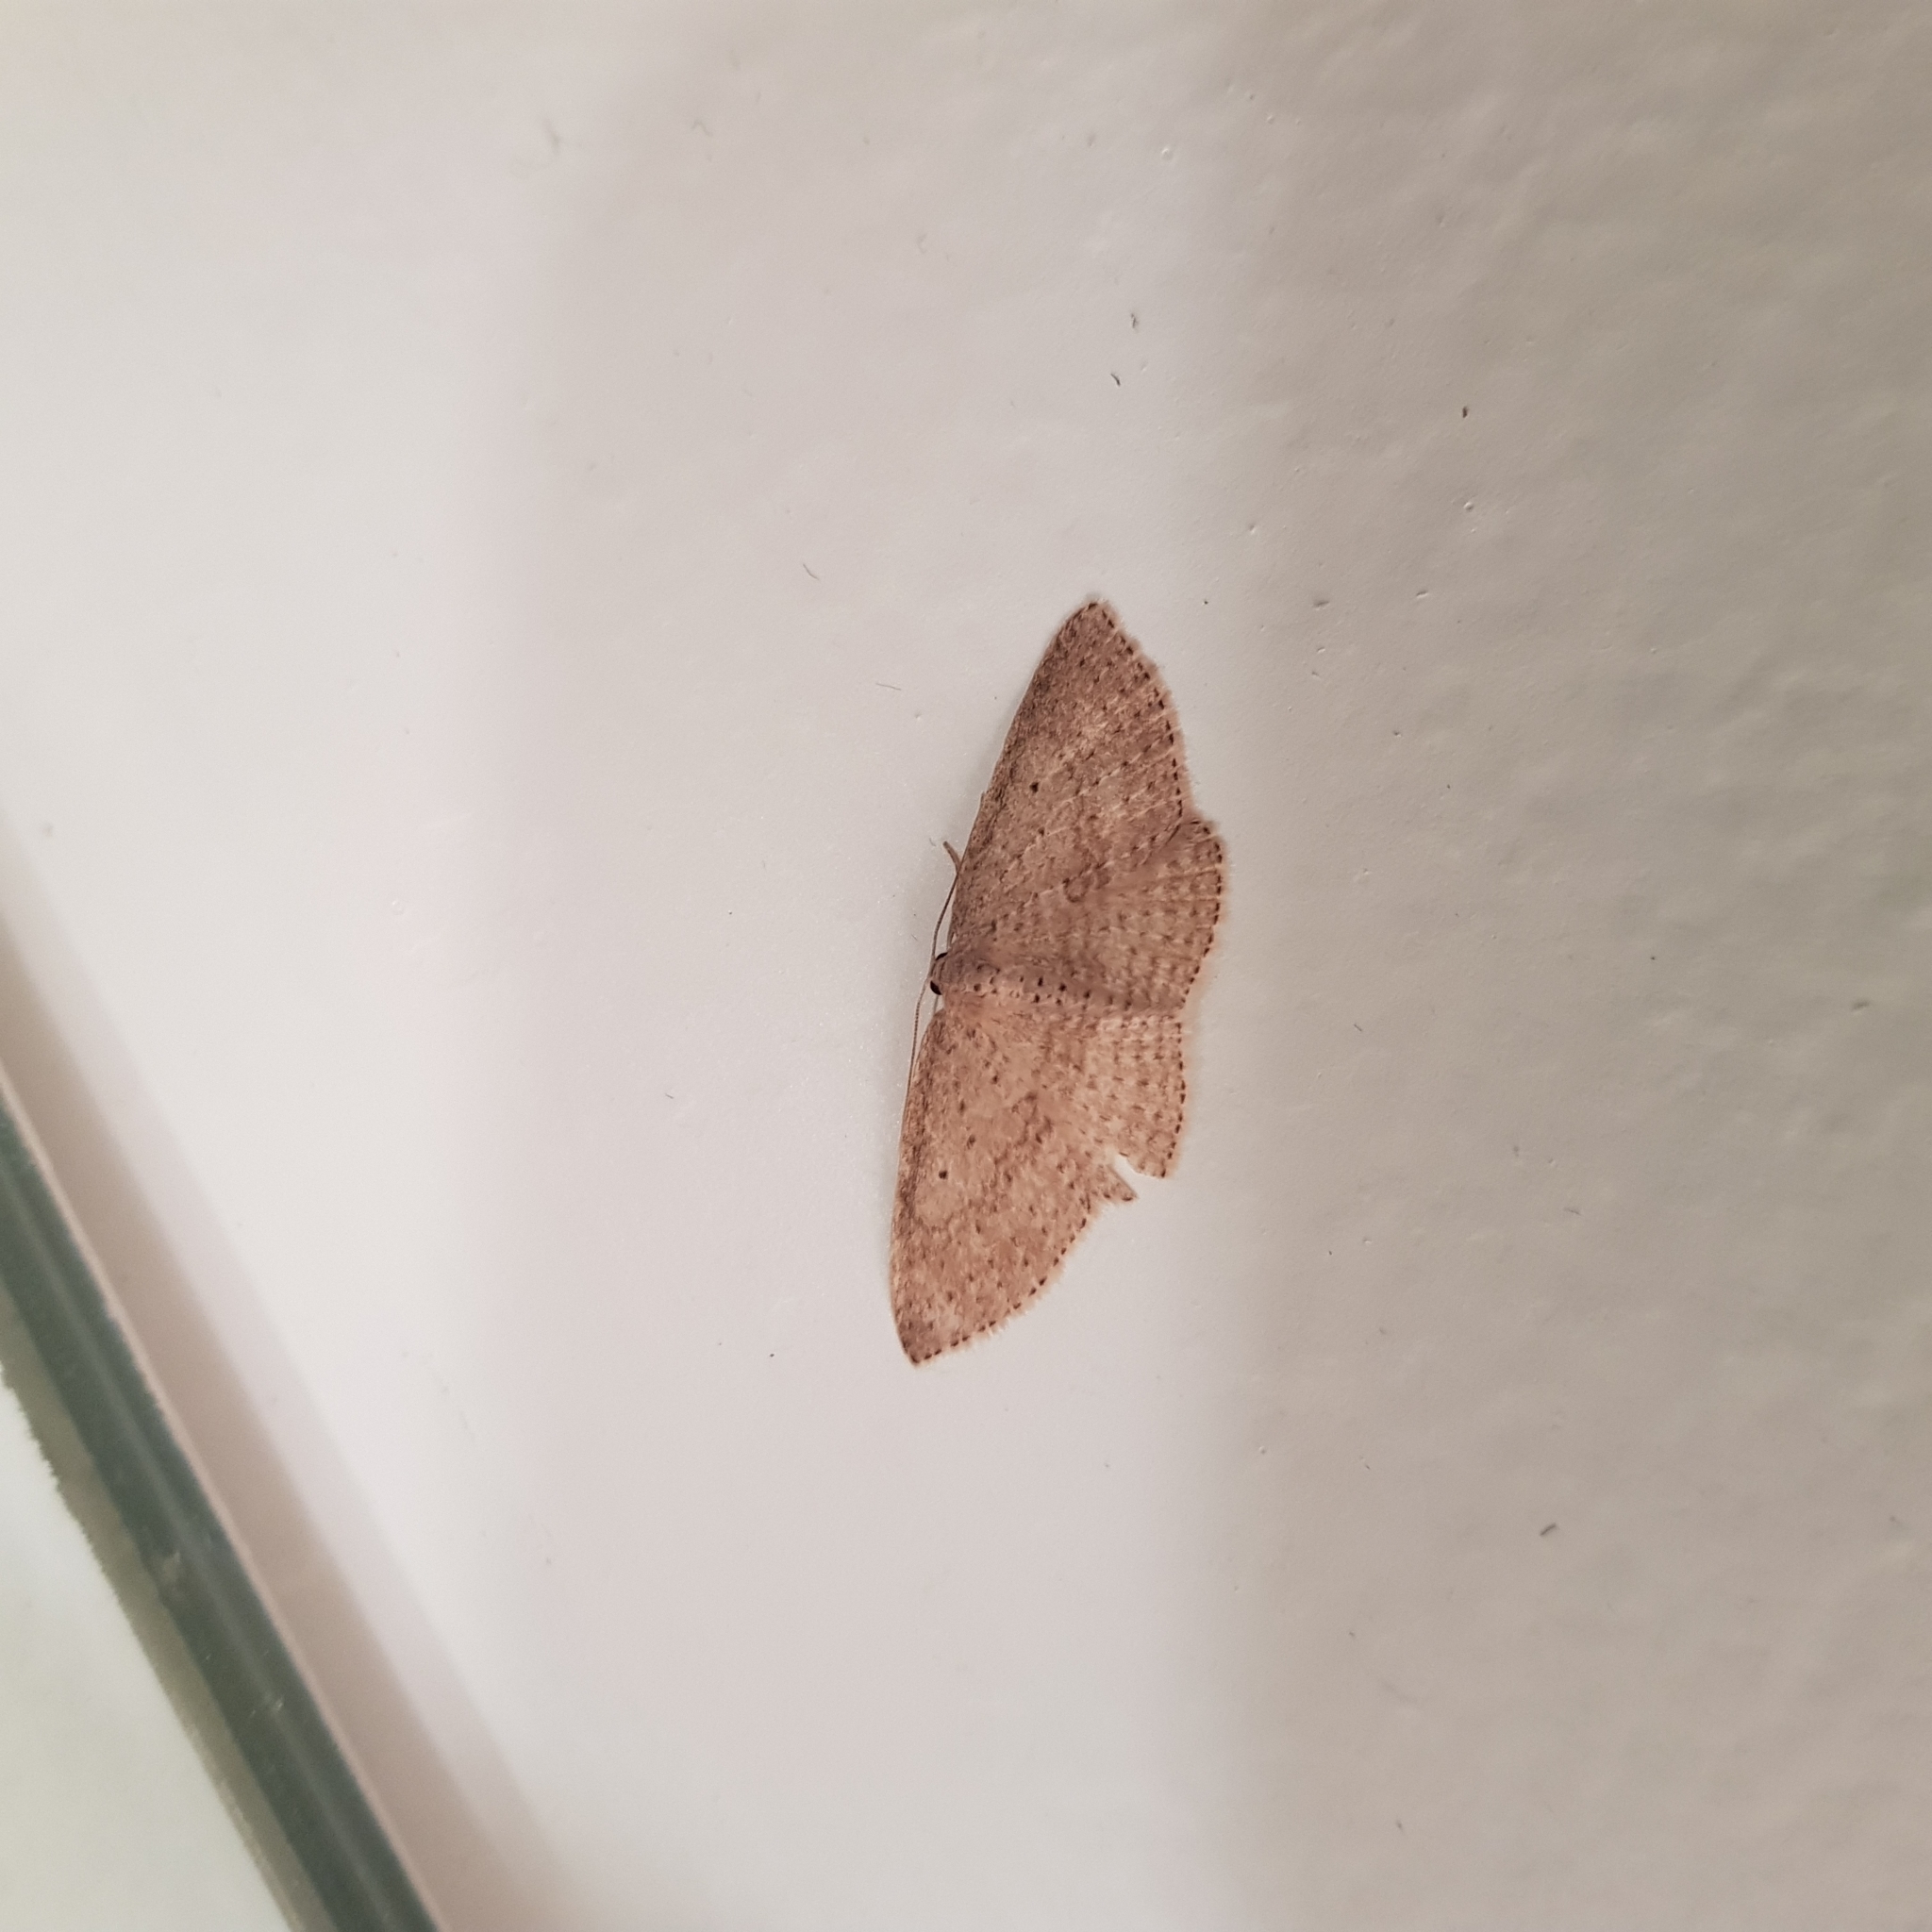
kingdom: Animalia
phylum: Arthropoda
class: Insecta
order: Lepidoptera
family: Geometridae
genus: Poecilasthena
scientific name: Poecilasthena schistaria
